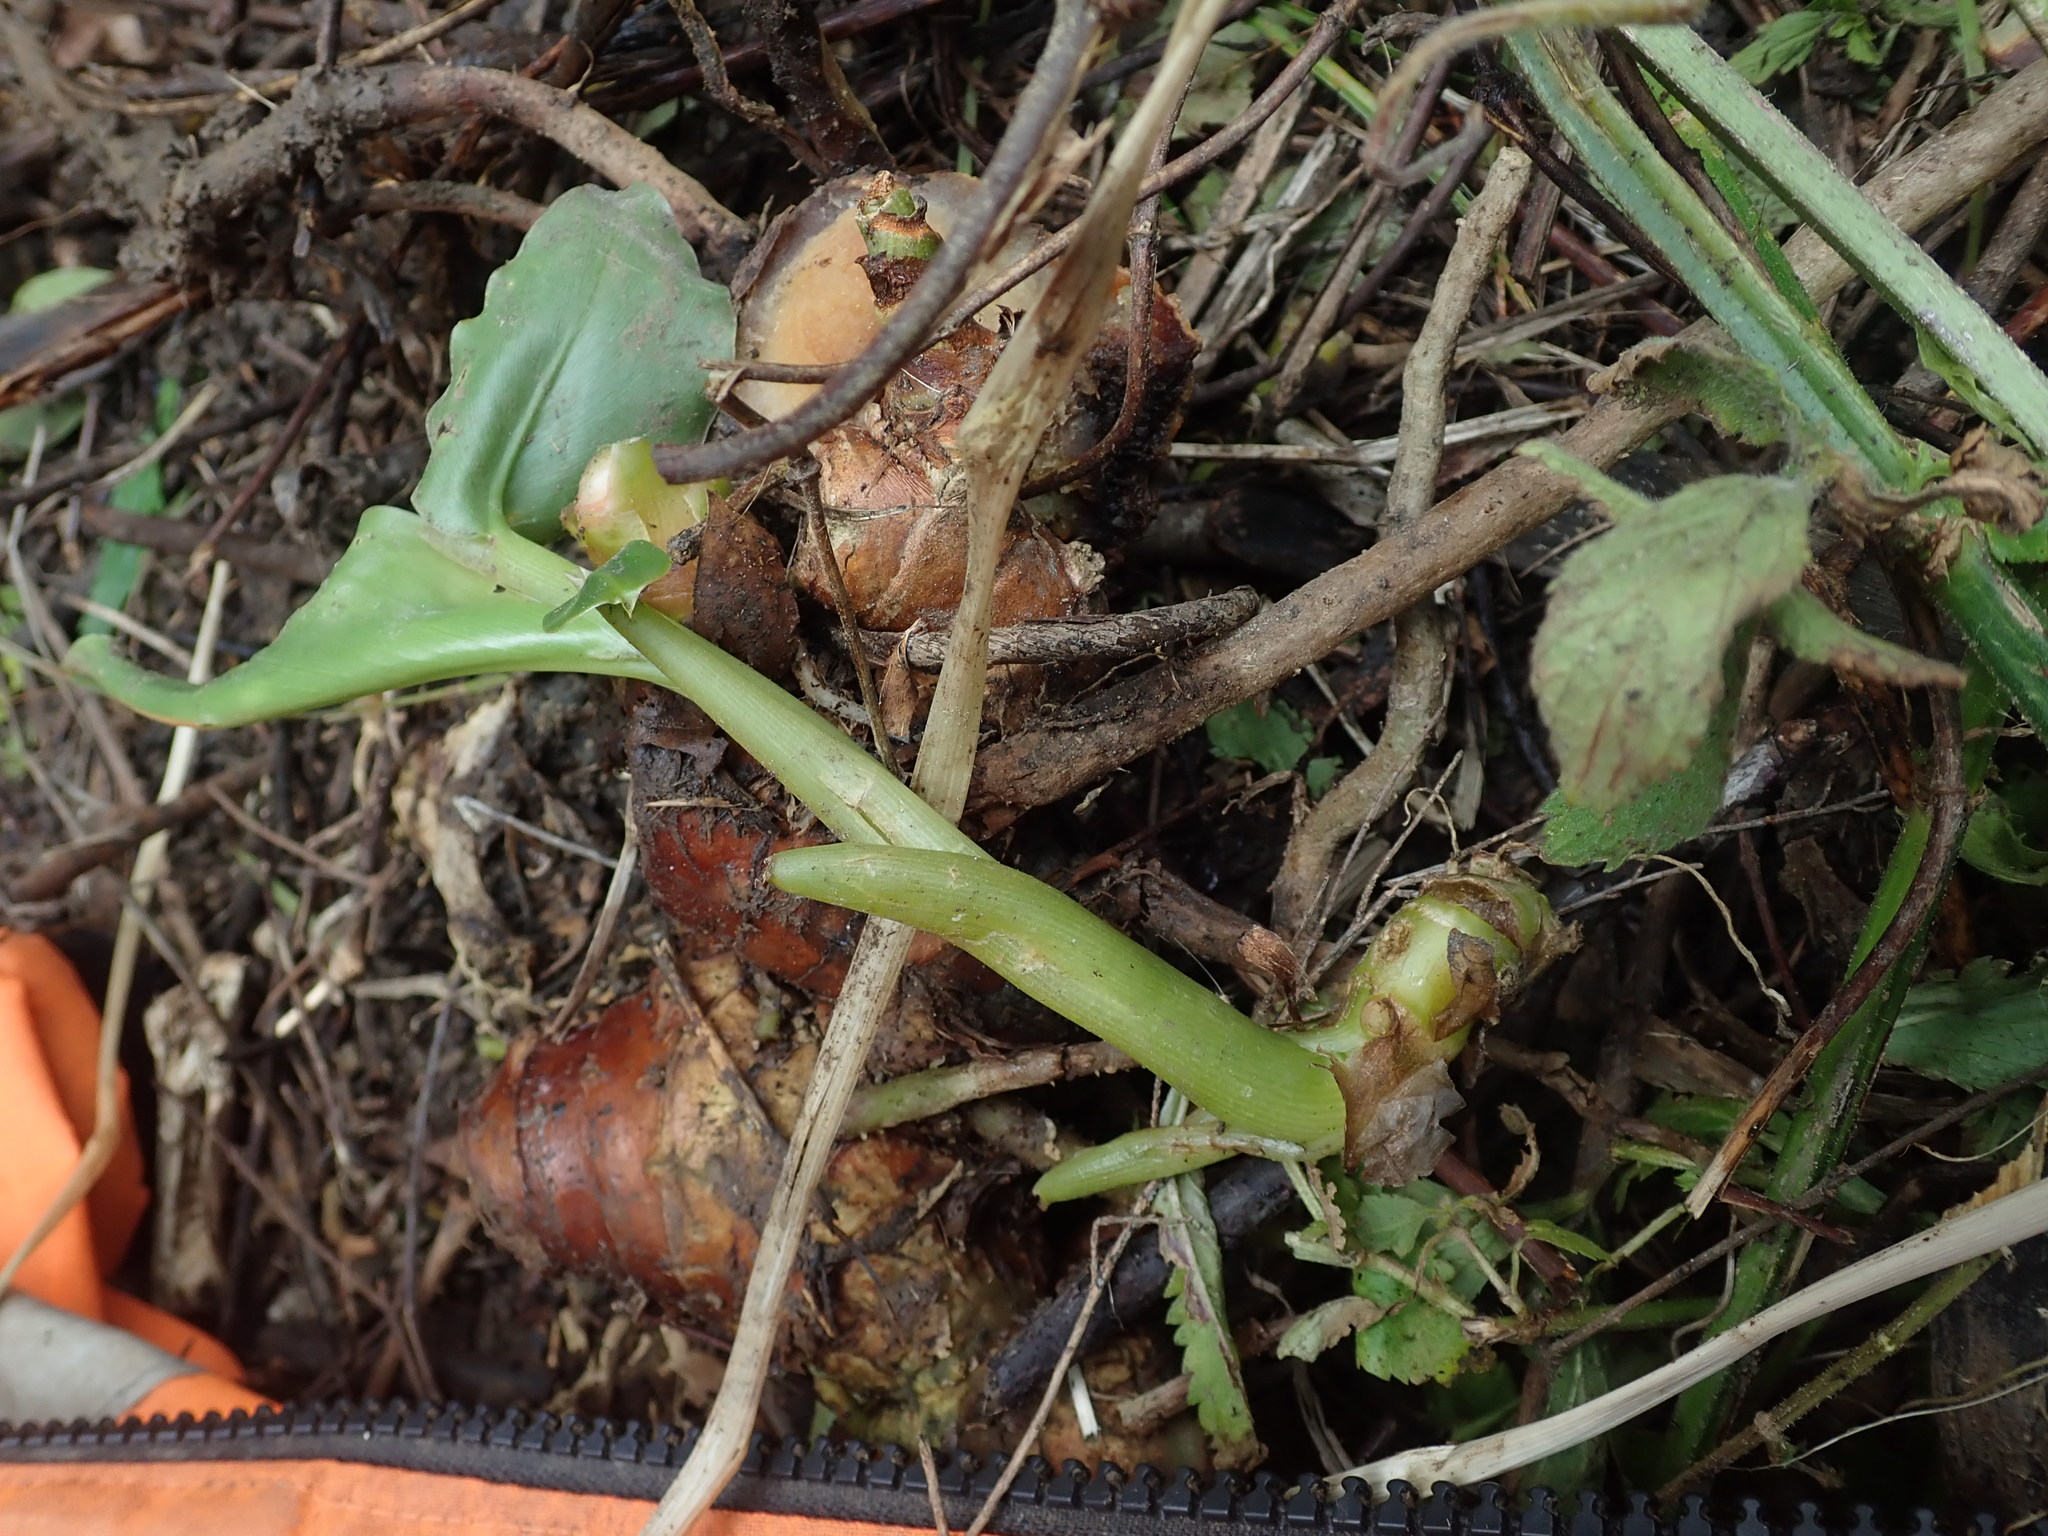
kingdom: Plantae
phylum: Tracheophyta
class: Liliopsida
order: Zingiberales
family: Zingiberaceae
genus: Hedychium
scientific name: Hedychium gardnerianum
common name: Himalayan ginger
